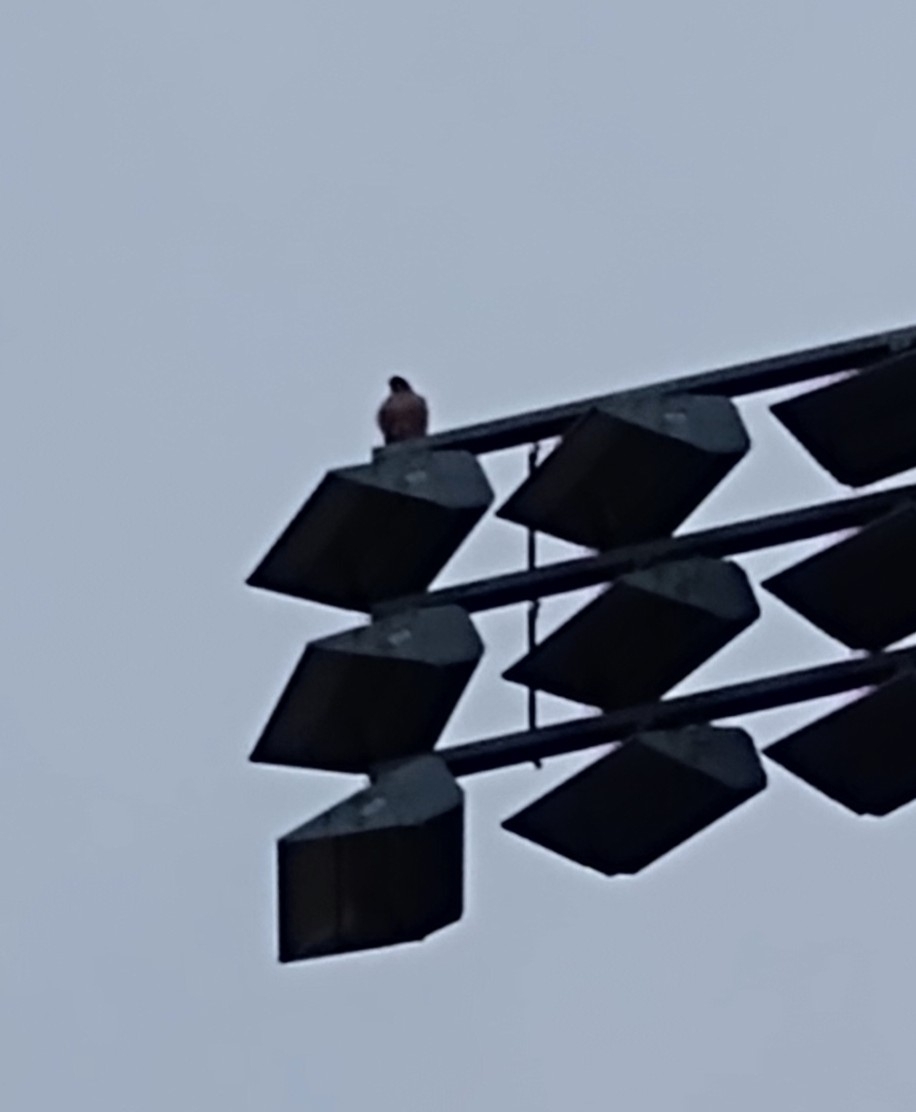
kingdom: Animalia
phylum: Chordata
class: Aves
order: Accipitriformes
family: Accipitridae
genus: Buteo
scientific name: Buteo jamaicensis
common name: Red-tailed hawk
